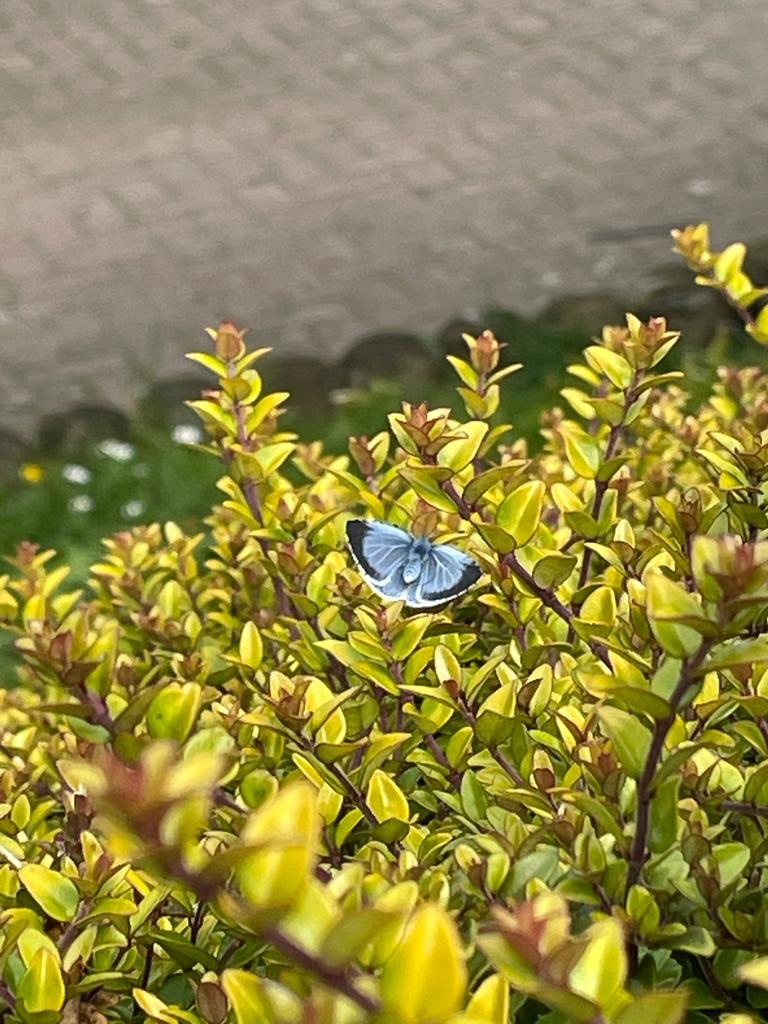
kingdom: Animalia
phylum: Arthropoda
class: Insecta
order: Lepidoptera
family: Lycaenidae
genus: Celastrina
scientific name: Celastrina argiolus
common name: Holly blue
